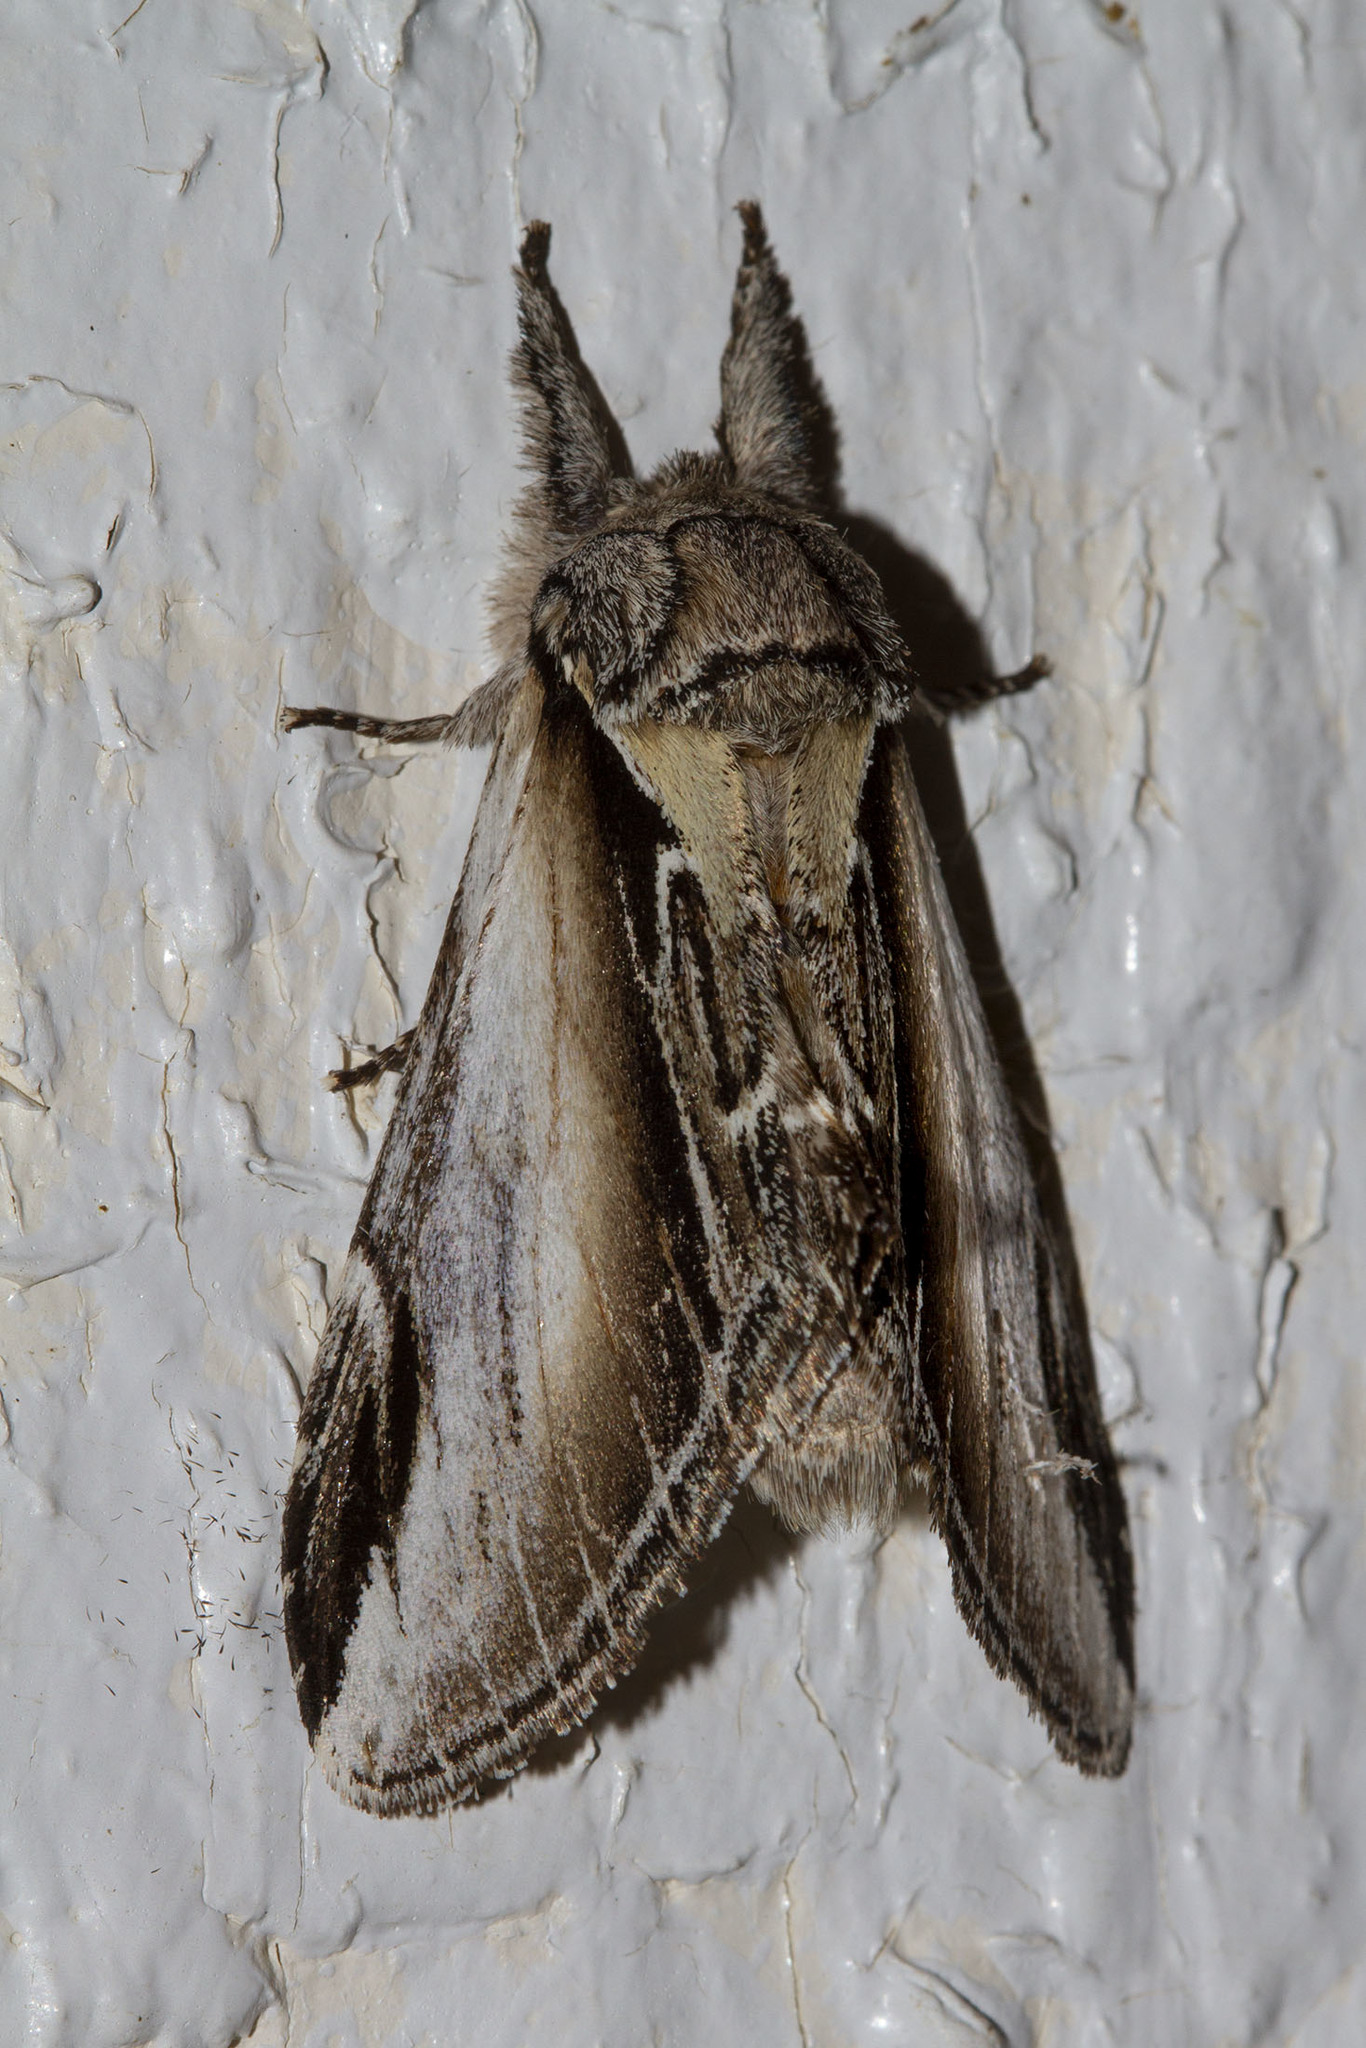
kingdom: Animalia
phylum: Arthropoda
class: Insecta
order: Lepidoptera
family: Notodontidae
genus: Pheosia
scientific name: Pheosia rimosa
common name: Black-rimmed prominent
